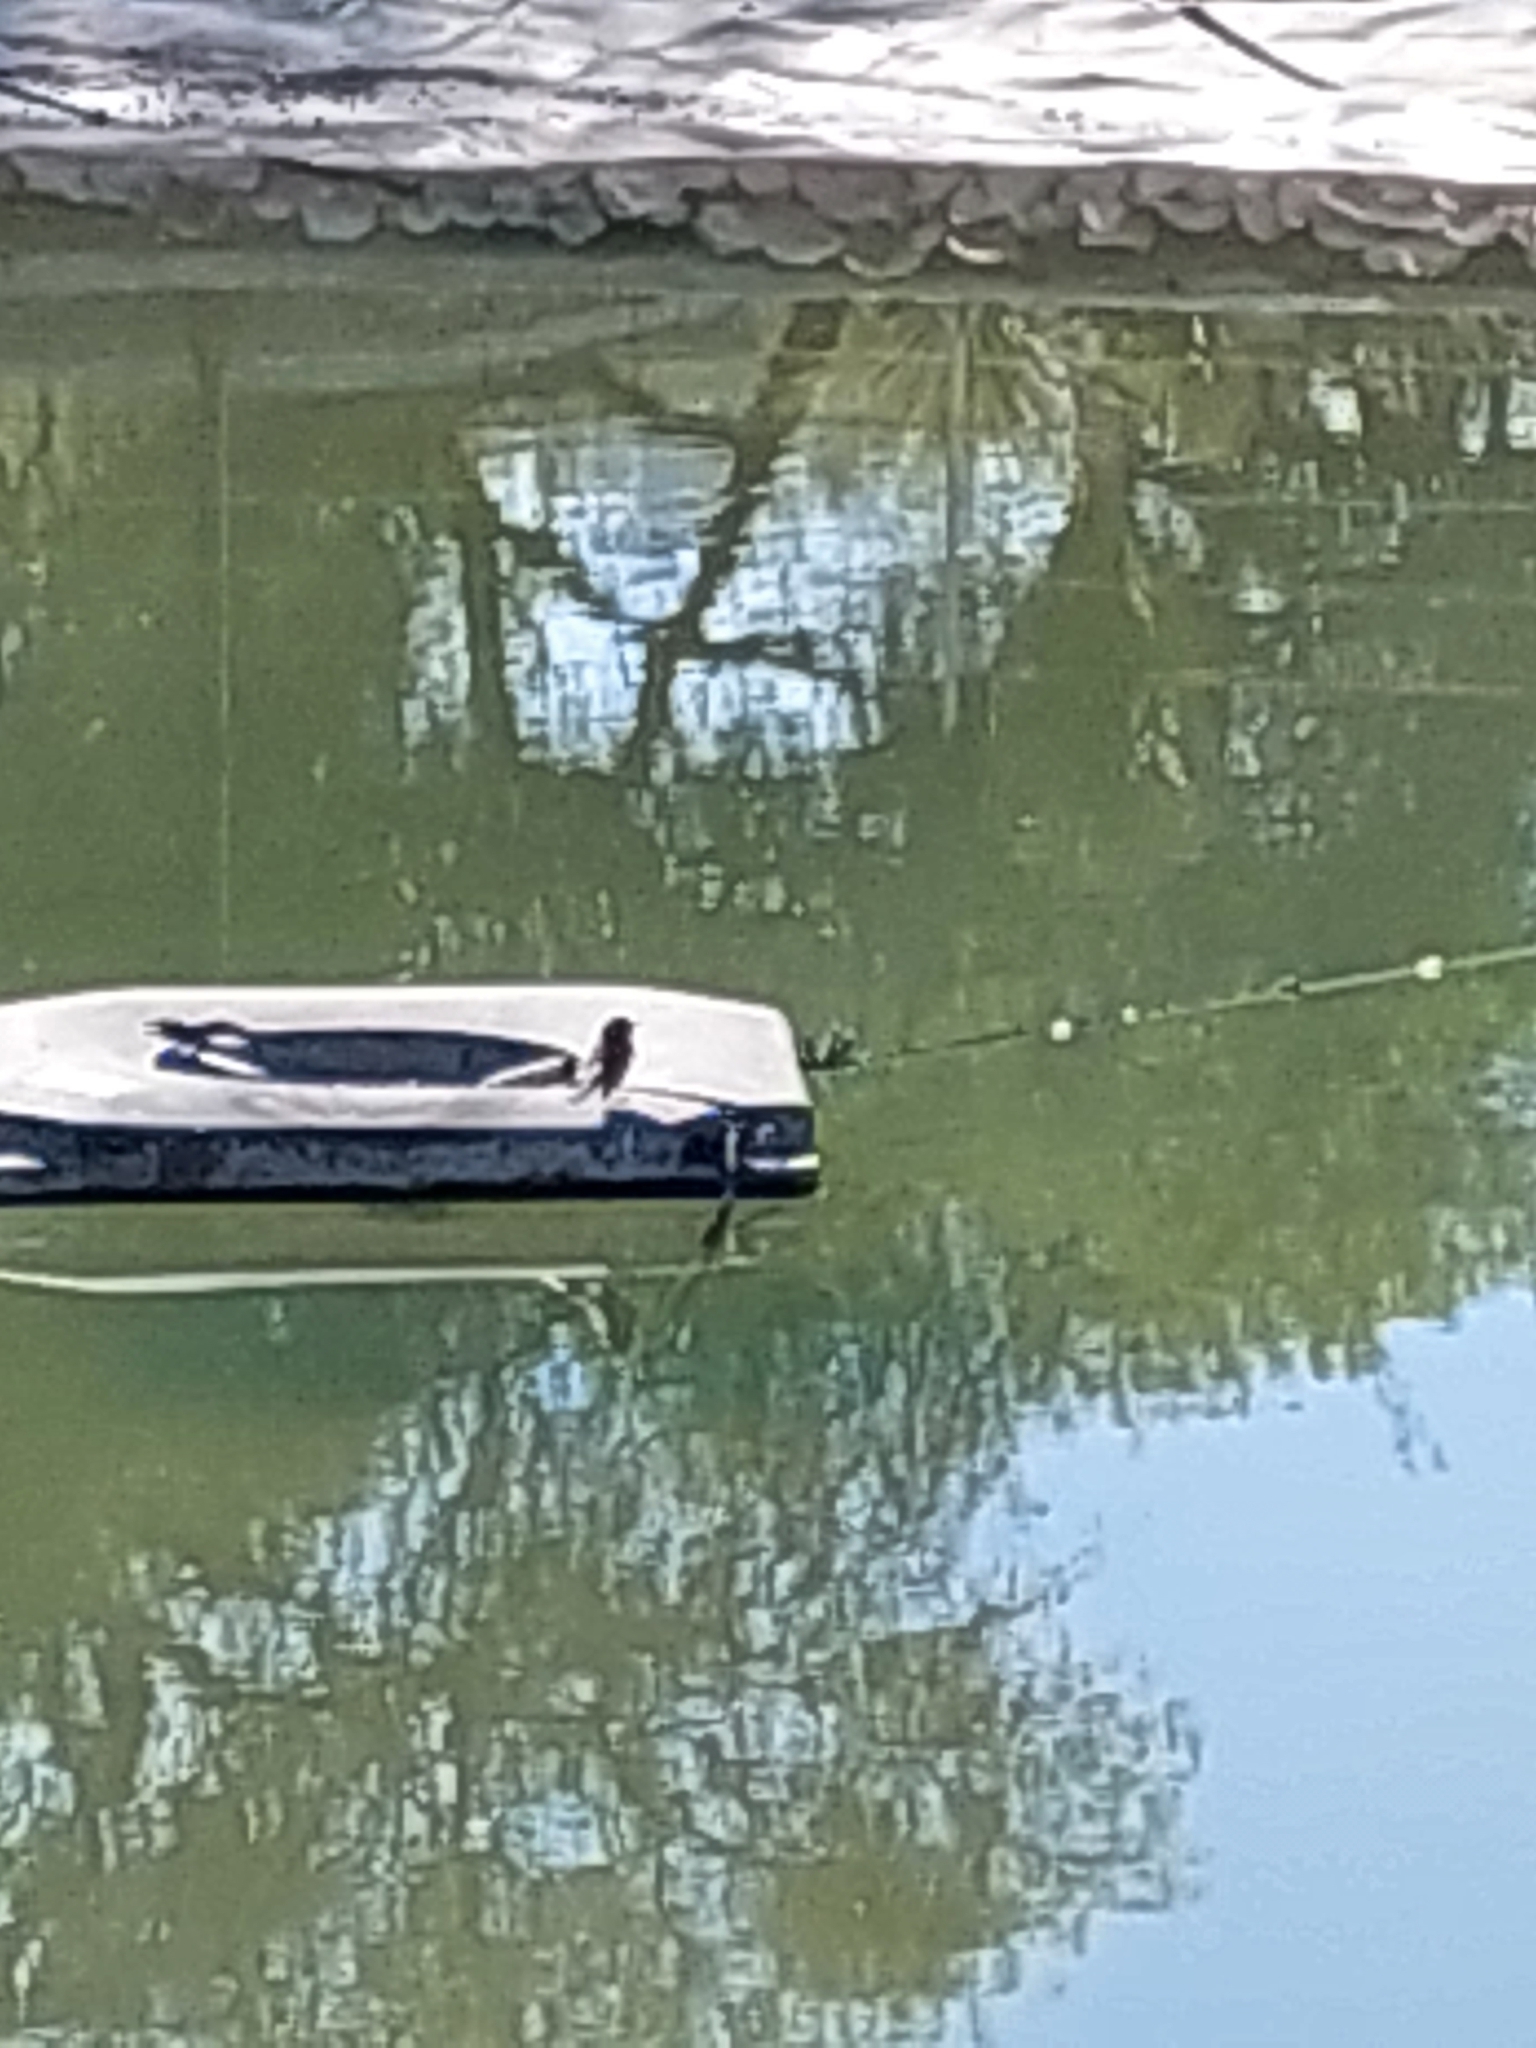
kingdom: Animalia
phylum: Chordata
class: Aves
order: Passeriformes
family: Tyrannidae
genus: Sayornis
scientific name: Sayornis nigricans
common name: Black phoebe
